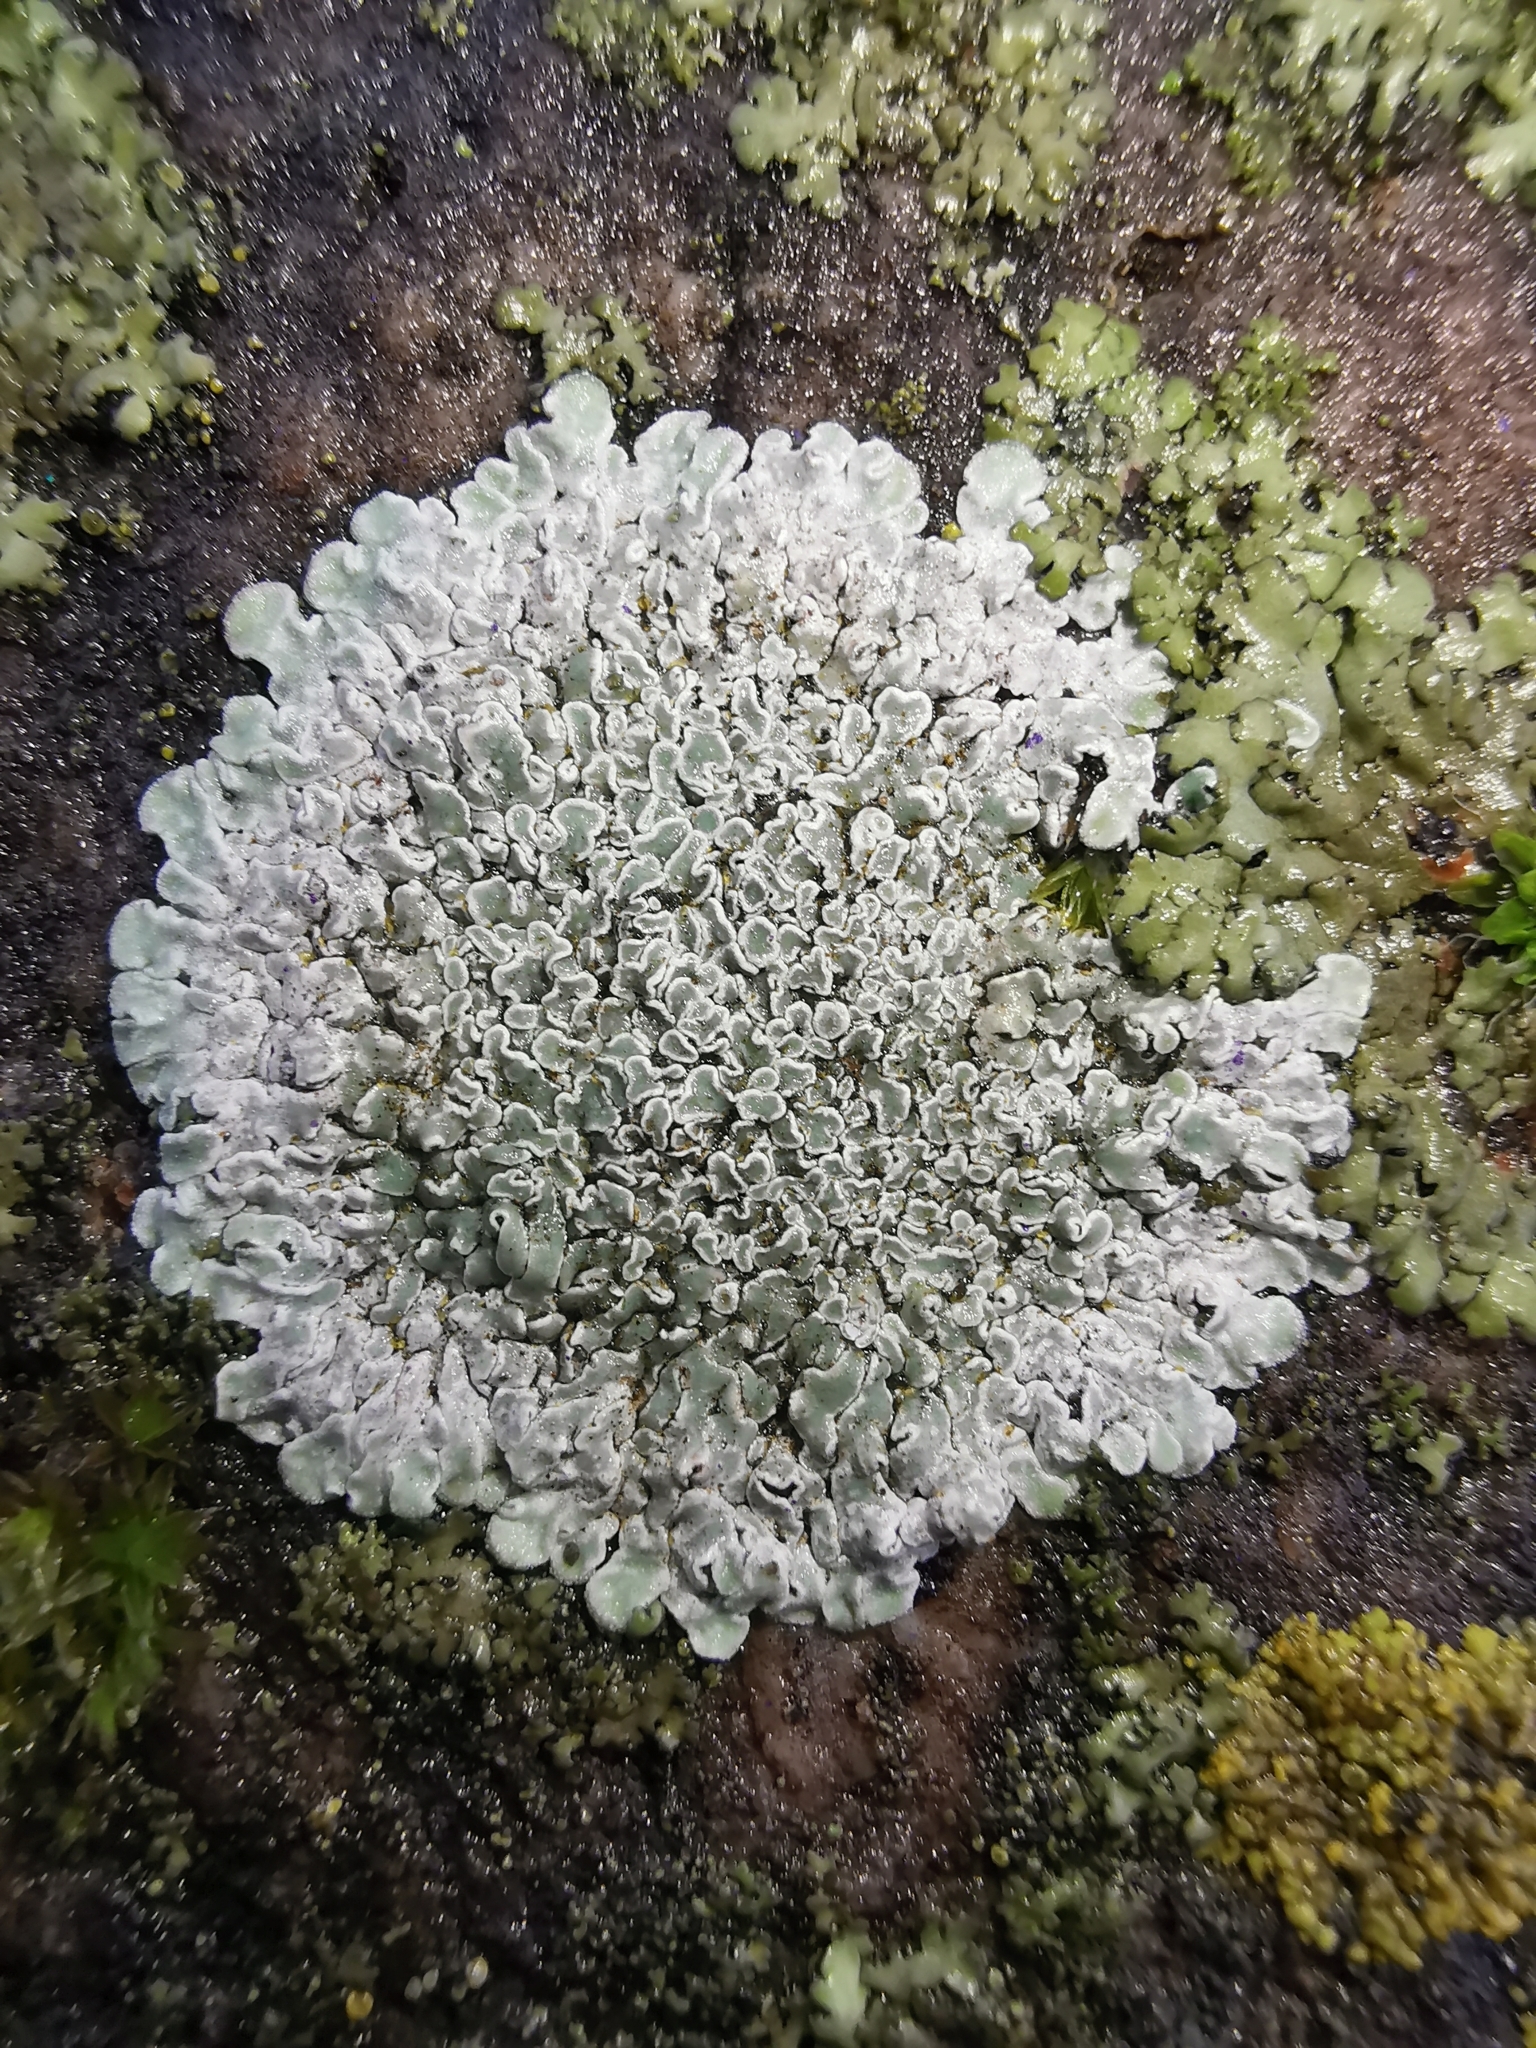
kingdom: Fungi
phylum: Ascomycota
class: Lecanoromycetes
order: Lecanorales
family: Lecanoraceae
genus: Protoparmeliopsis
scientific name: Protoparmeliopsis muralis
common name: Stonewall rim lichen
